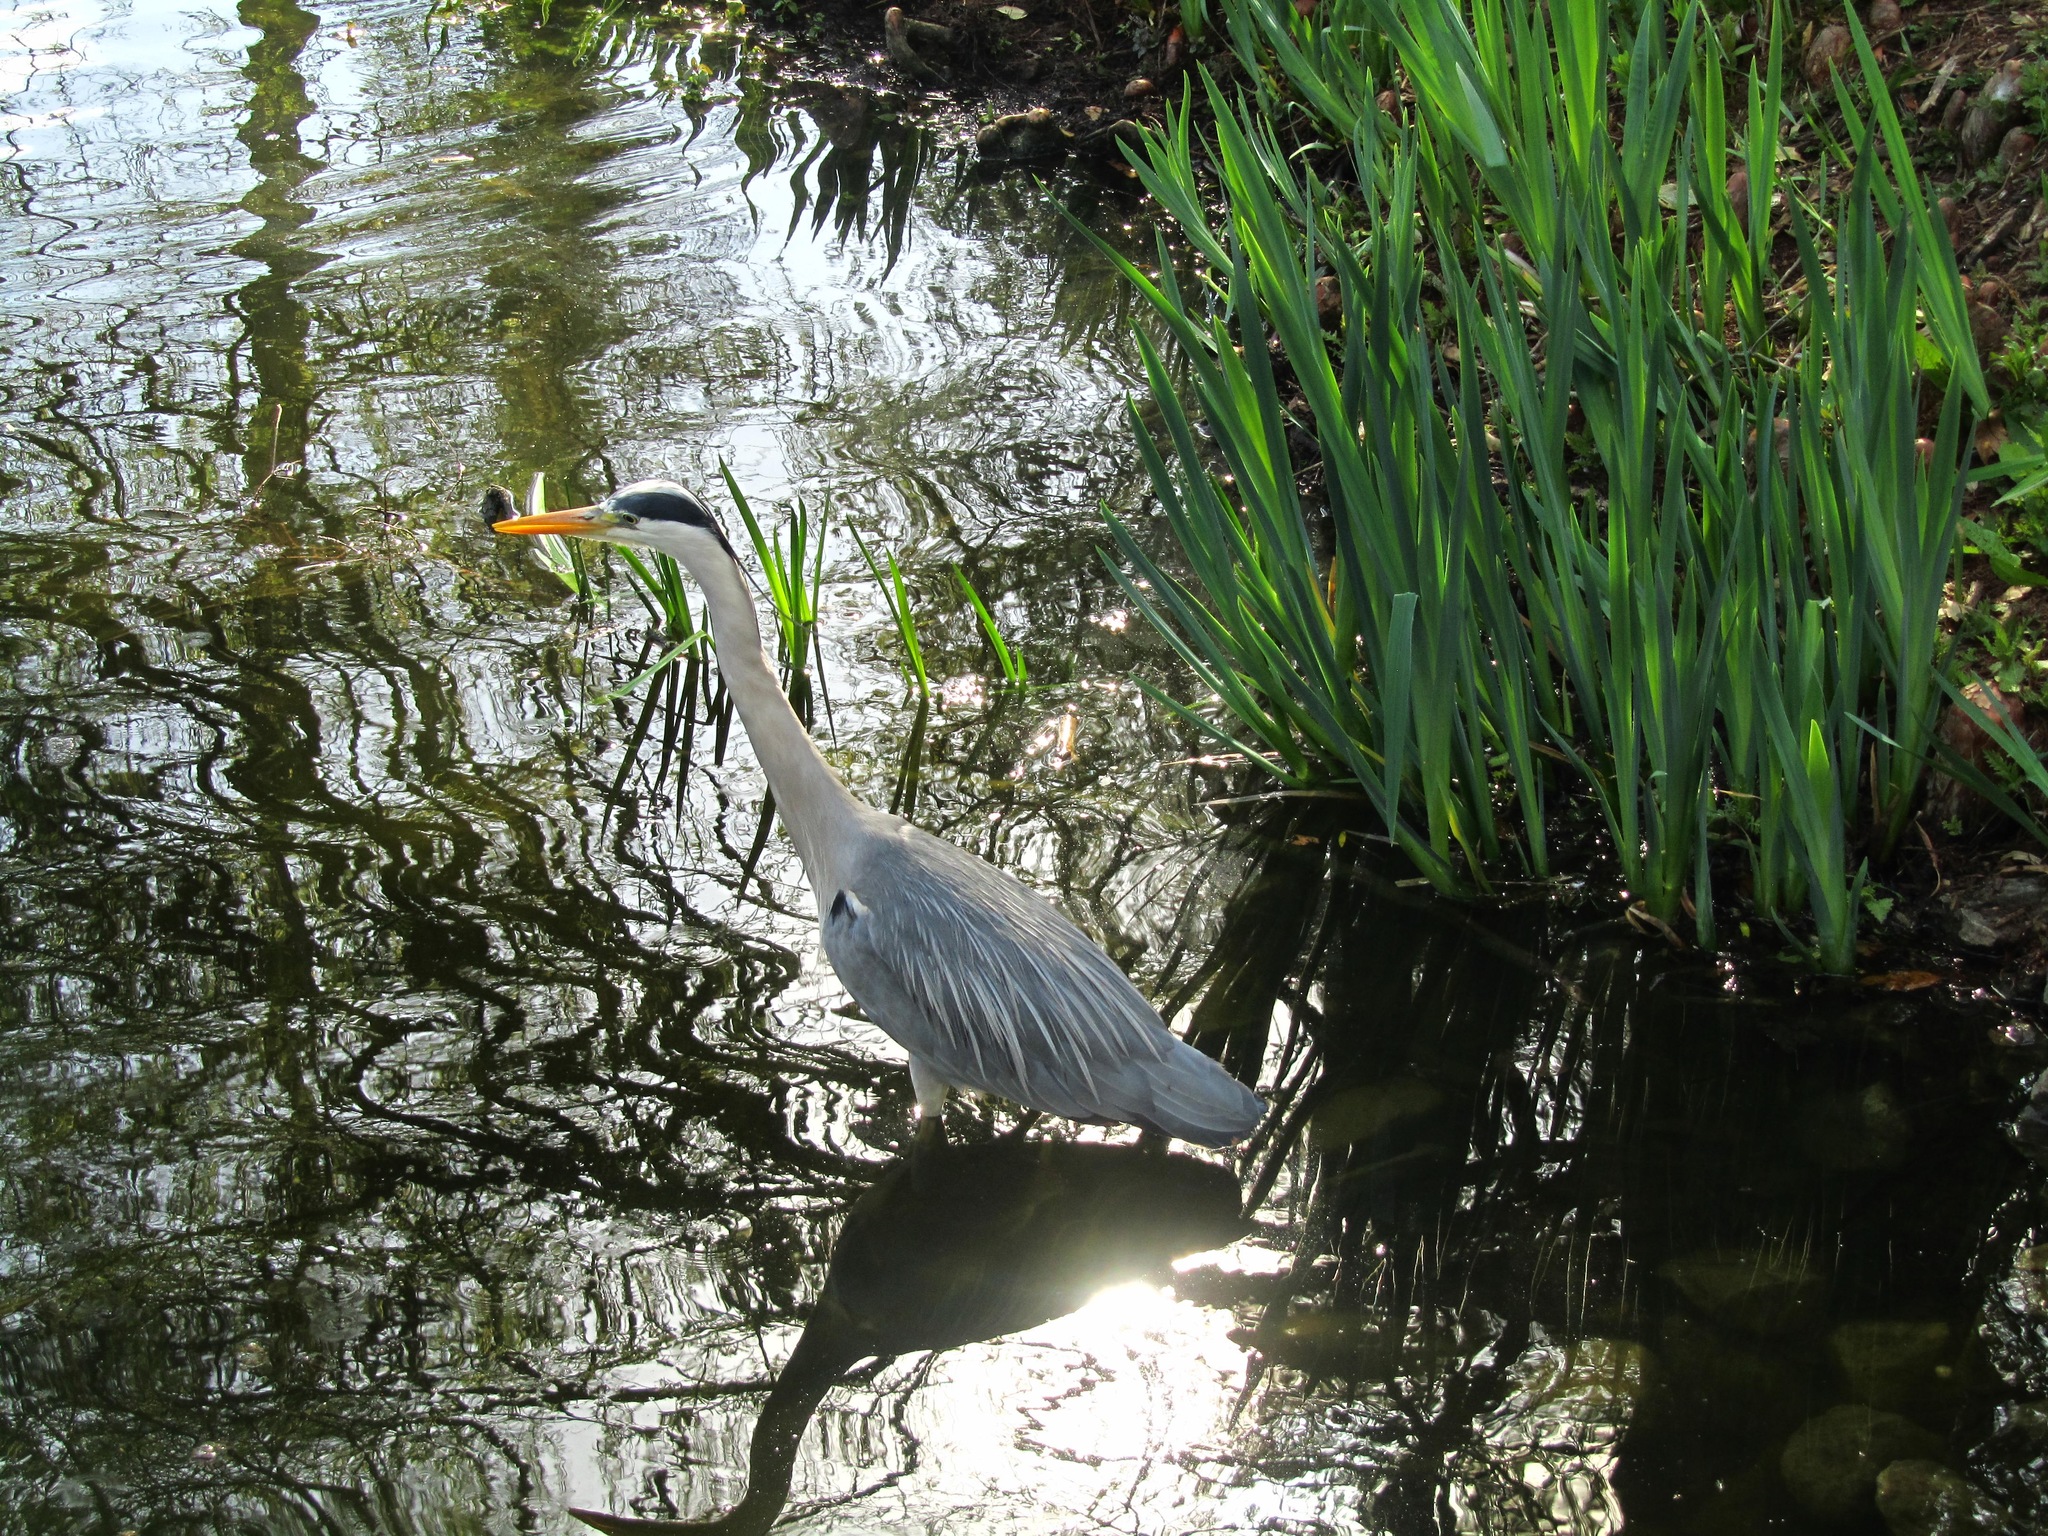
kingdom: Animalia
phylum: Chordata
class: Aves
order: Pelecaniformes
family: Ardeidae
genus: Ardea
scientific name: Ardea cinerea
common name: Grey heron
